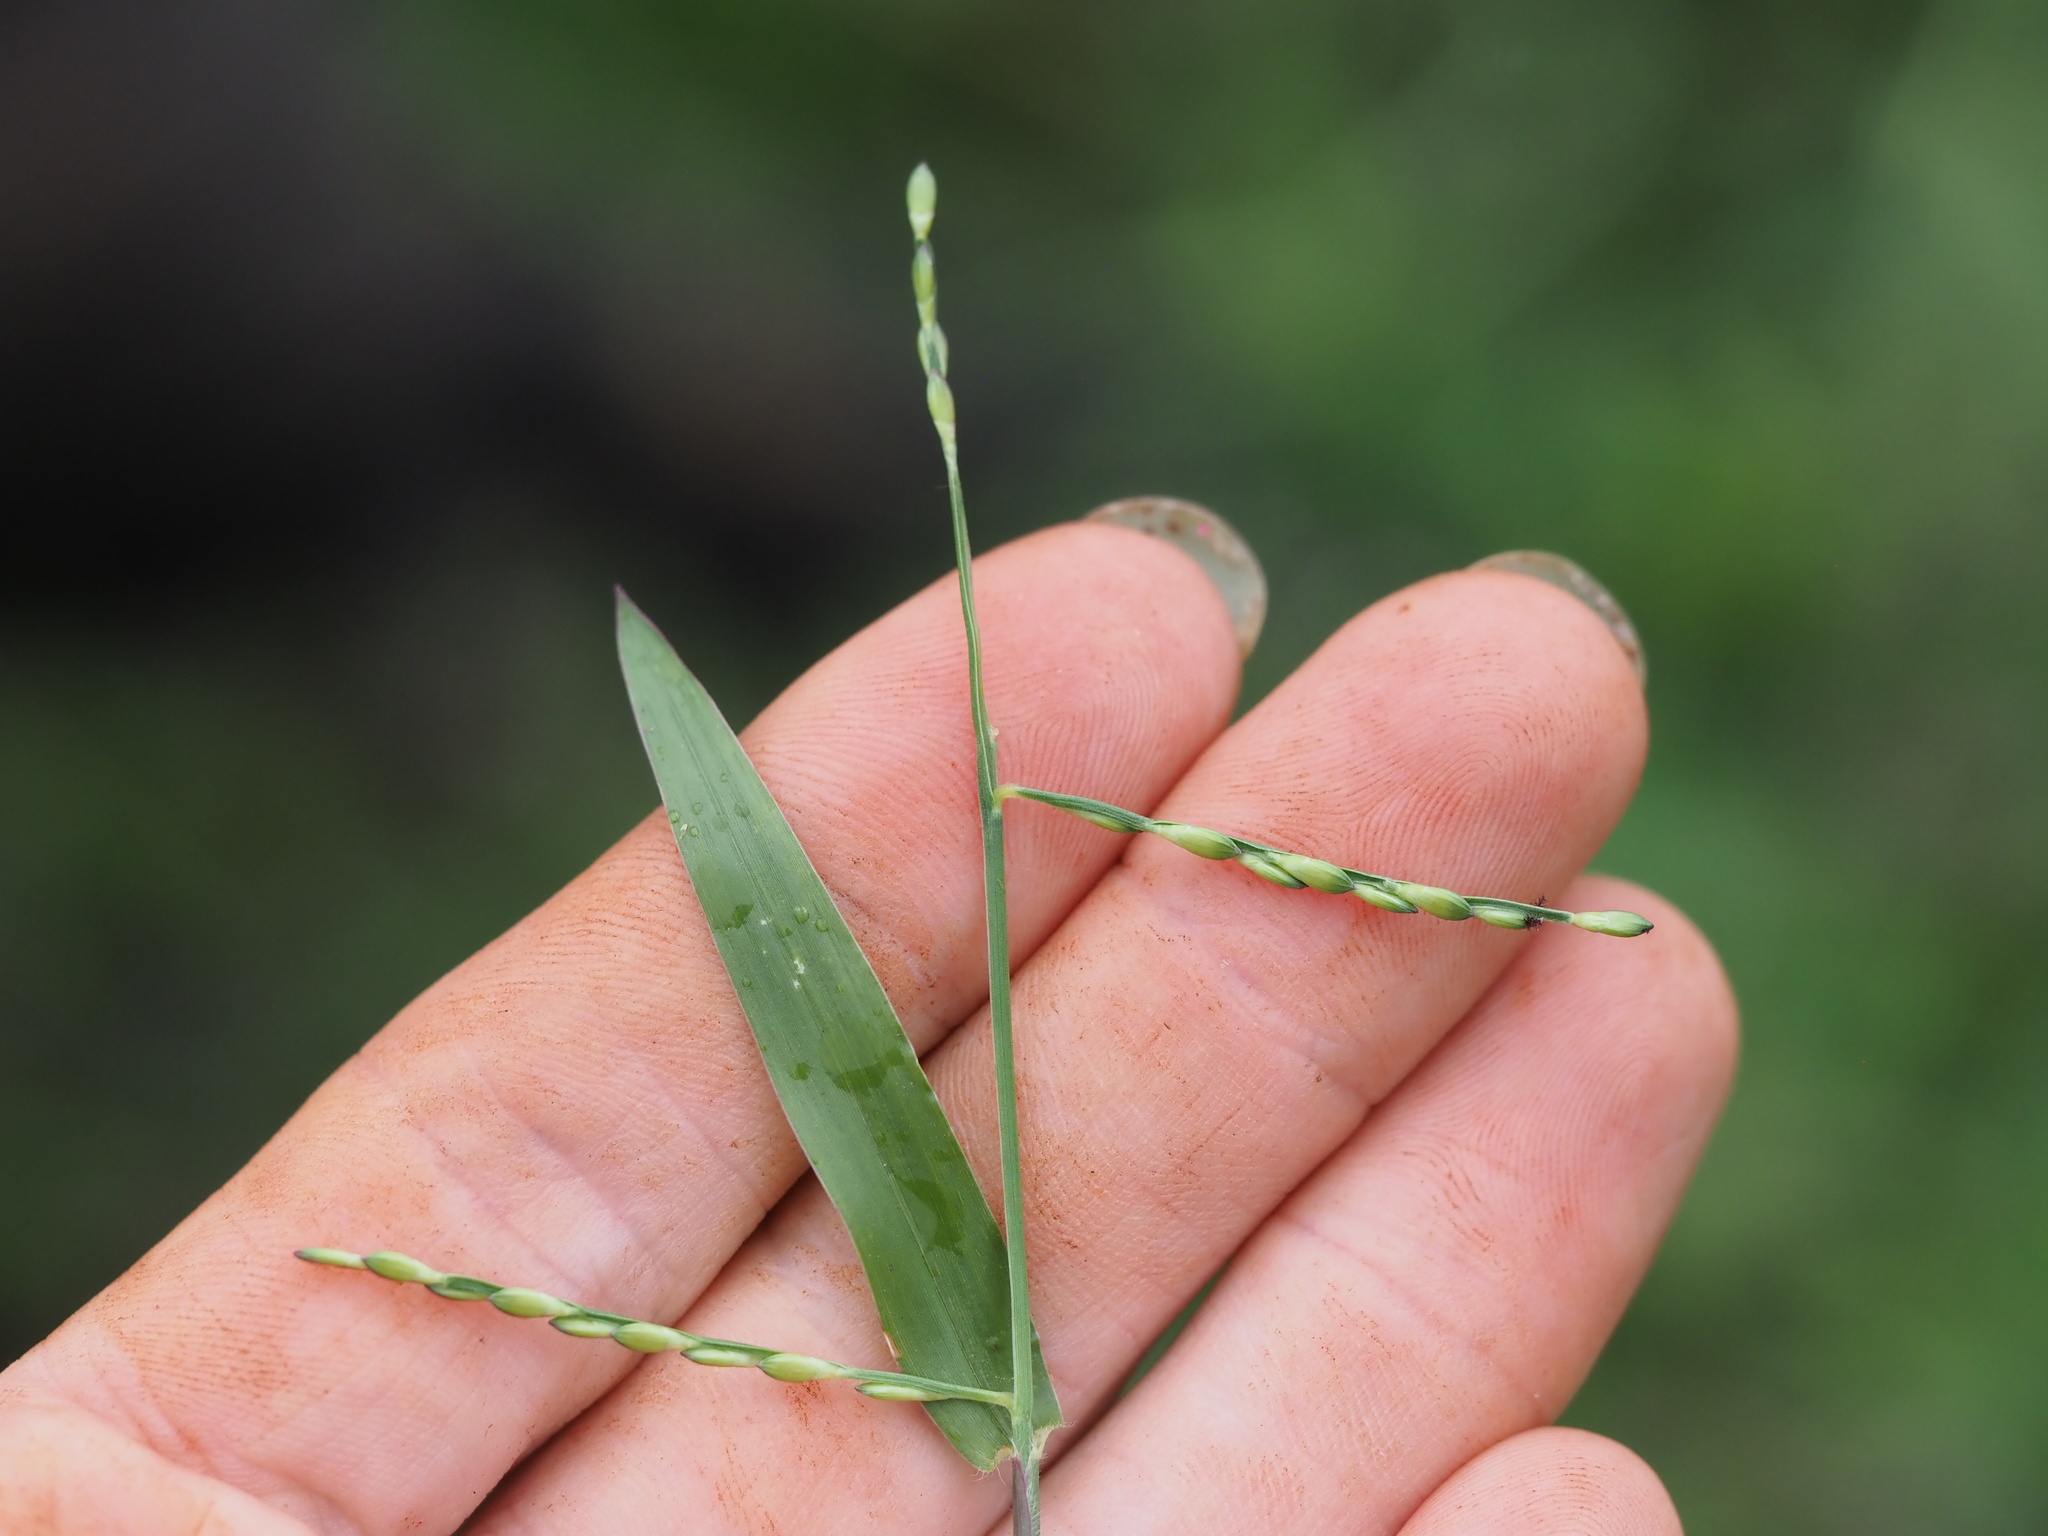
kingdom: Plantae
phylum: Tracheophyta
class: Liliopsida
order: Poales
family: Poaceae
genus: Urochloa
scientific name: Urochloa distachyos
